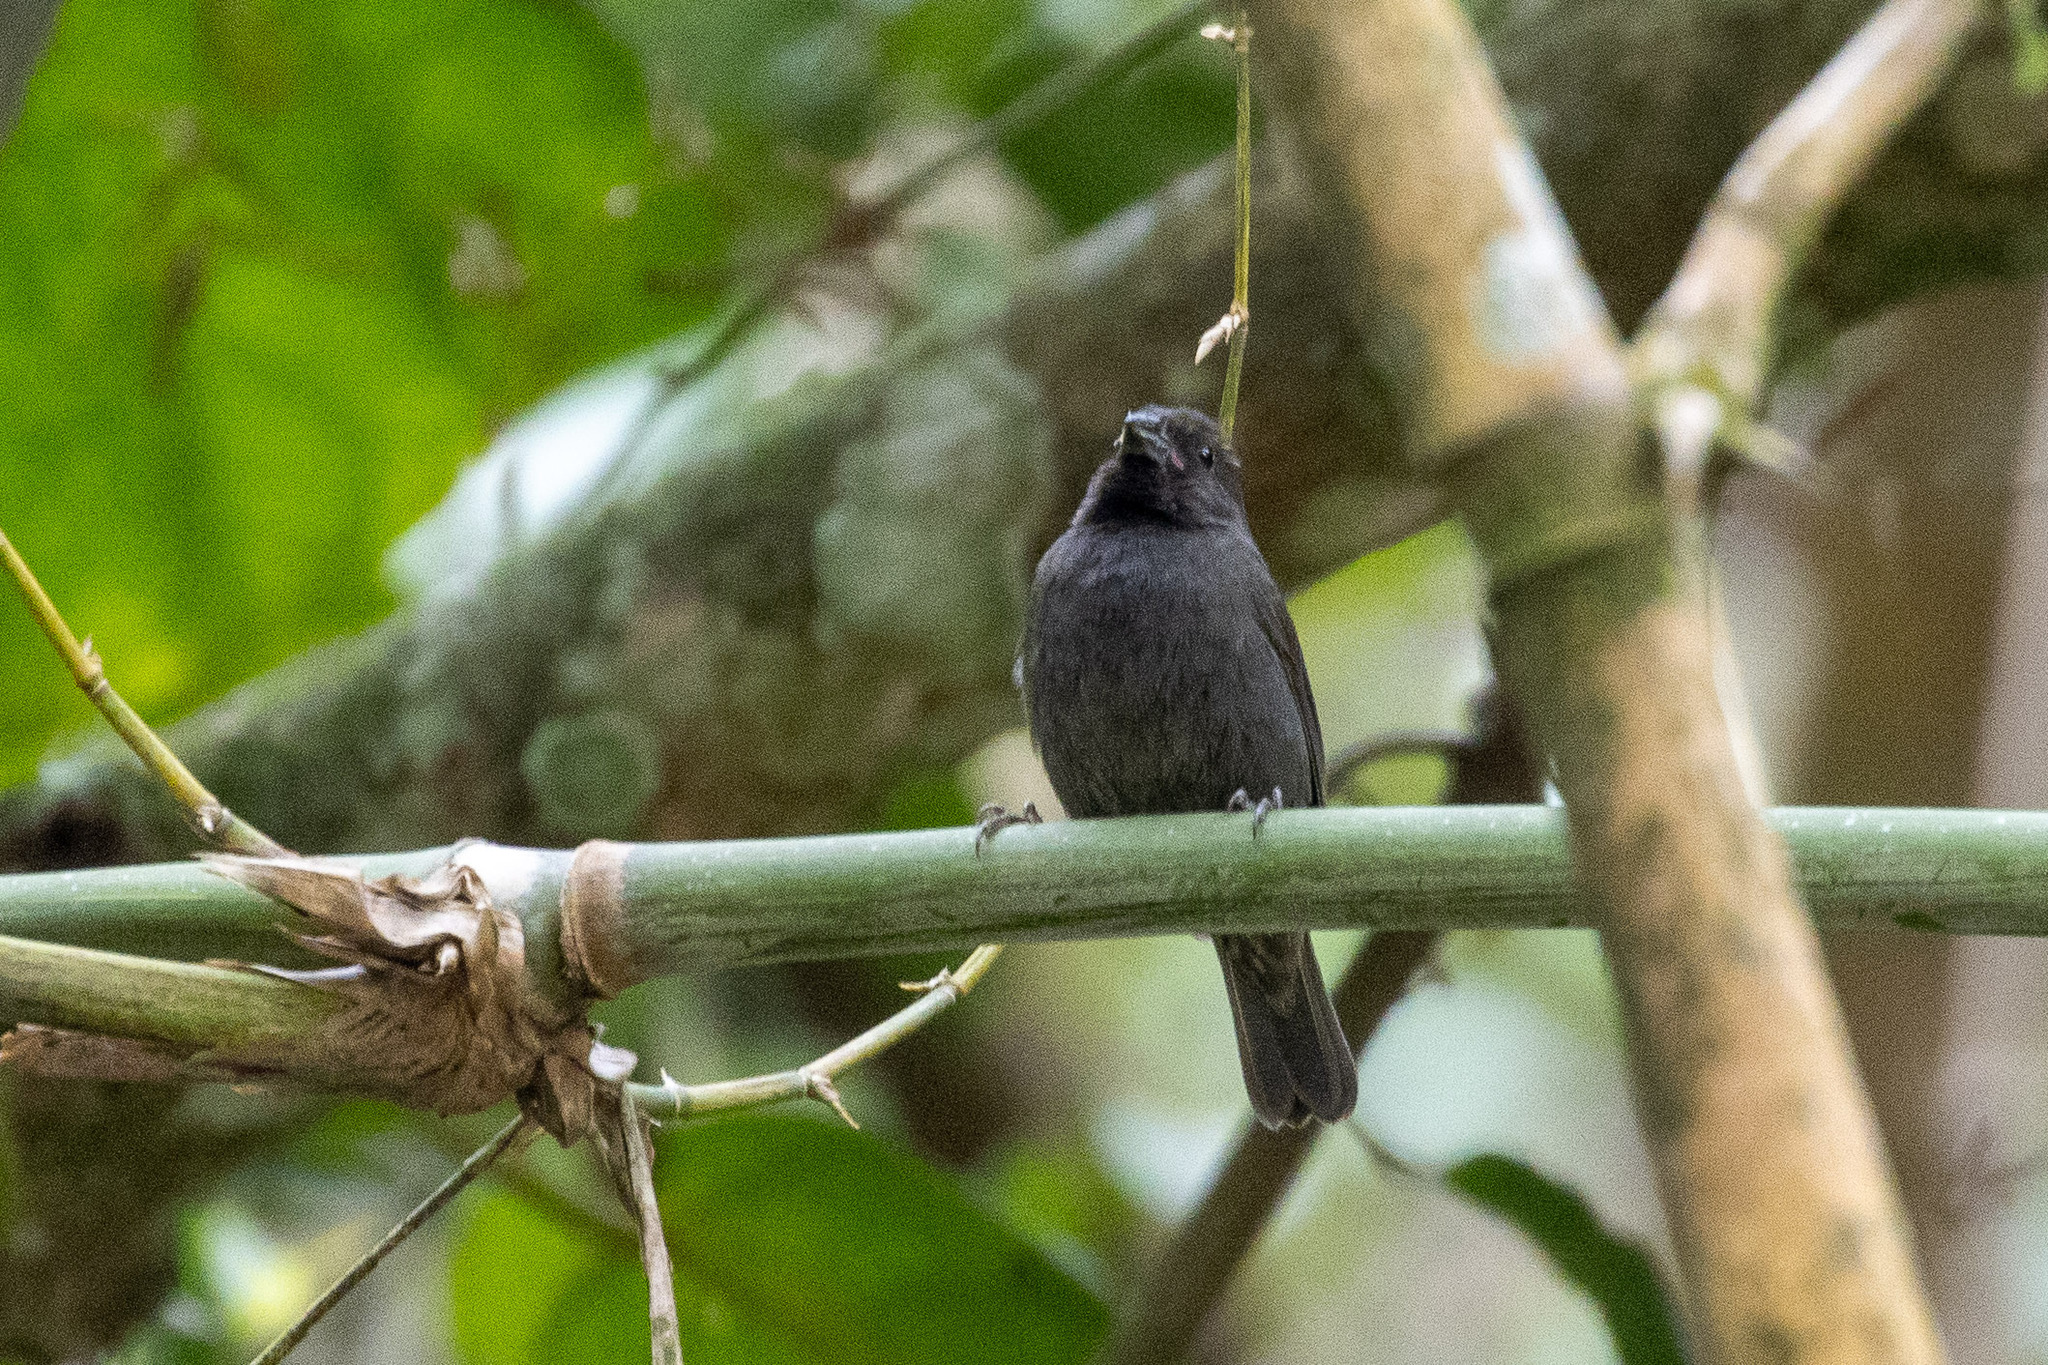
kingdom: Animalia
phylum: Chordata
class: Aves
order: Passeriformes
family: Thraupidae
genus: Asemospiza
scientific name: Asemospiza fuliginosa
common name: Sooty grassquit
